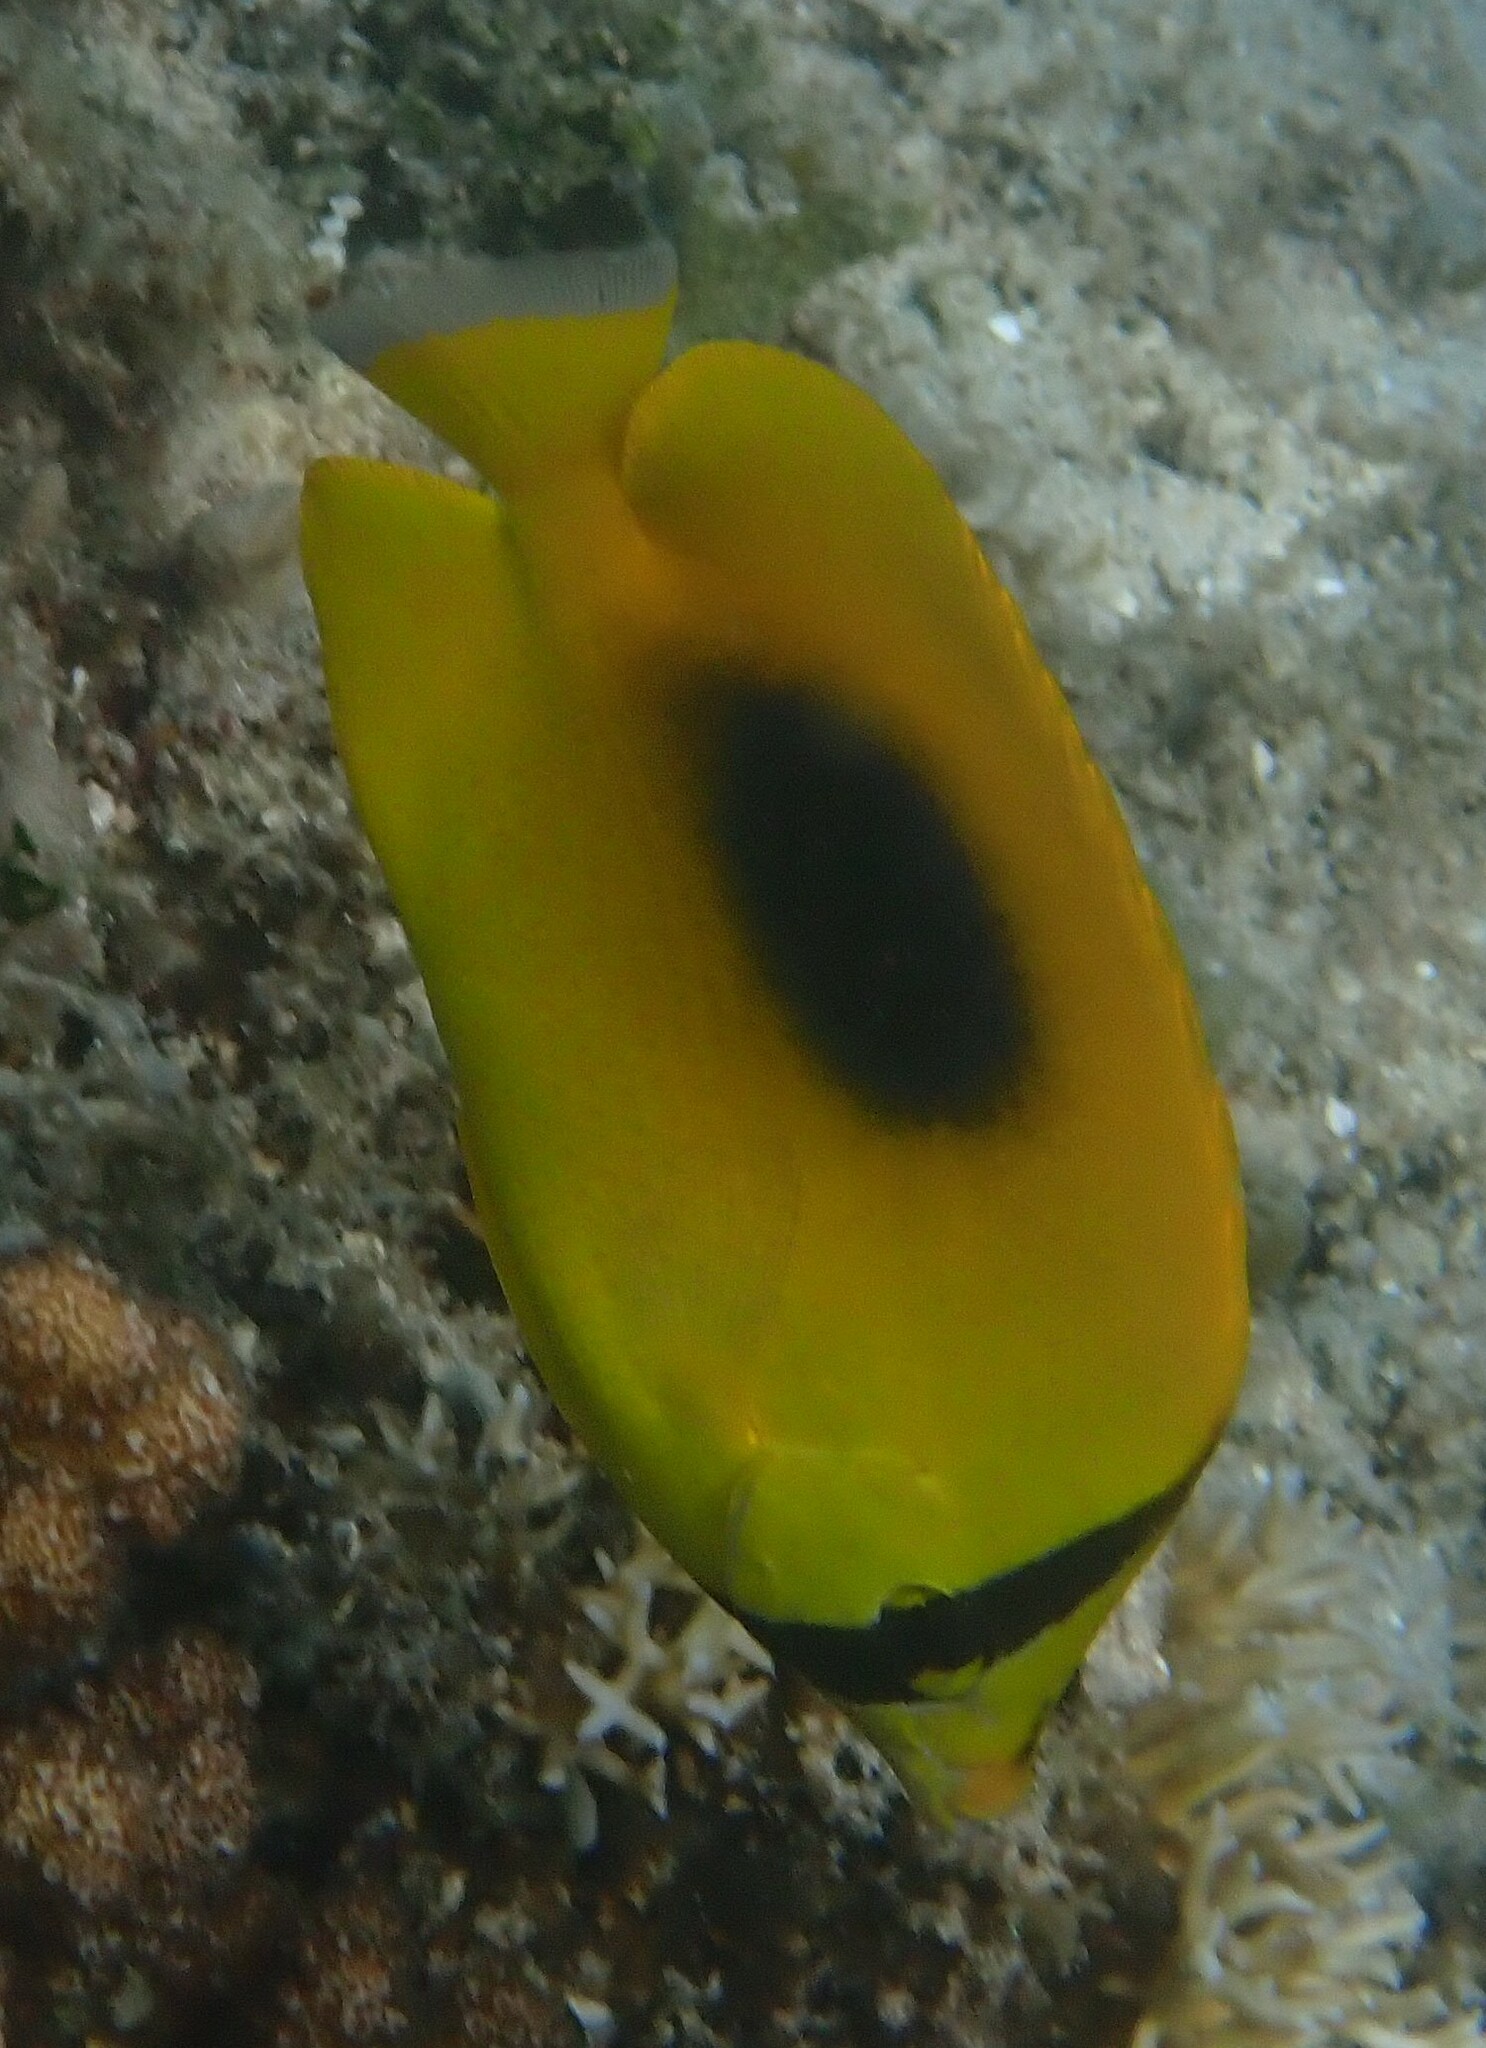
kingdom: Animalia
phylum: Chordata
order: Perciformes
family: Chaetodontidae
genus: Chaetodon
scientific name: Chaetodon speculum
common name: Mirror butterflyfish
